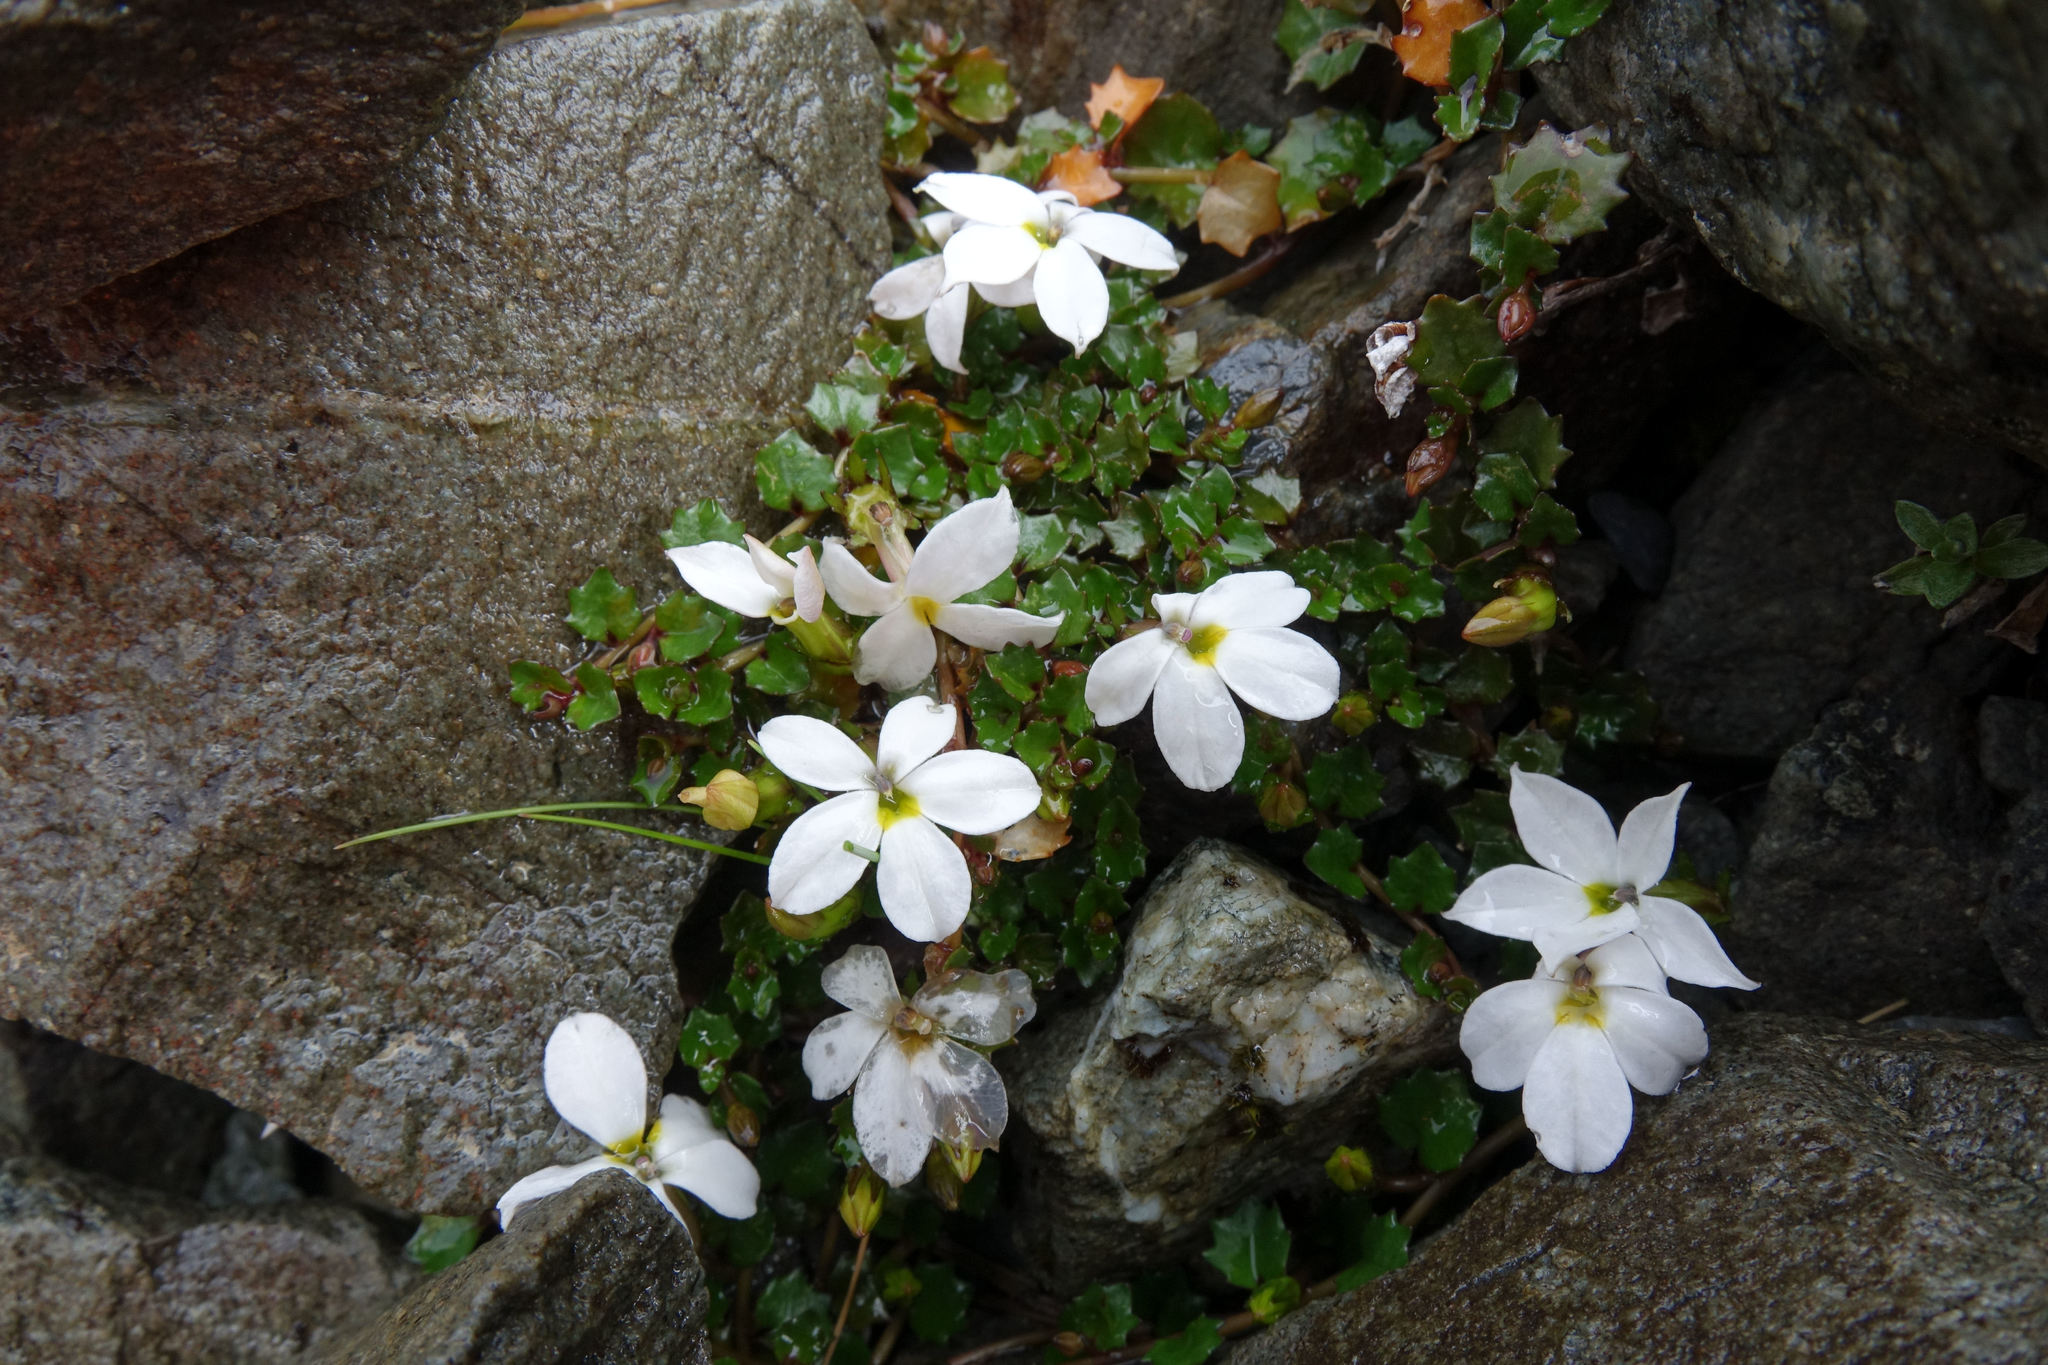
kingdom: Plantae
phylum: Tracheophyta
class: Magnoliopsida
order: Asterales
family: Campanulaceae
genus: Lobelia
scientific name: Lobelia macrodon
